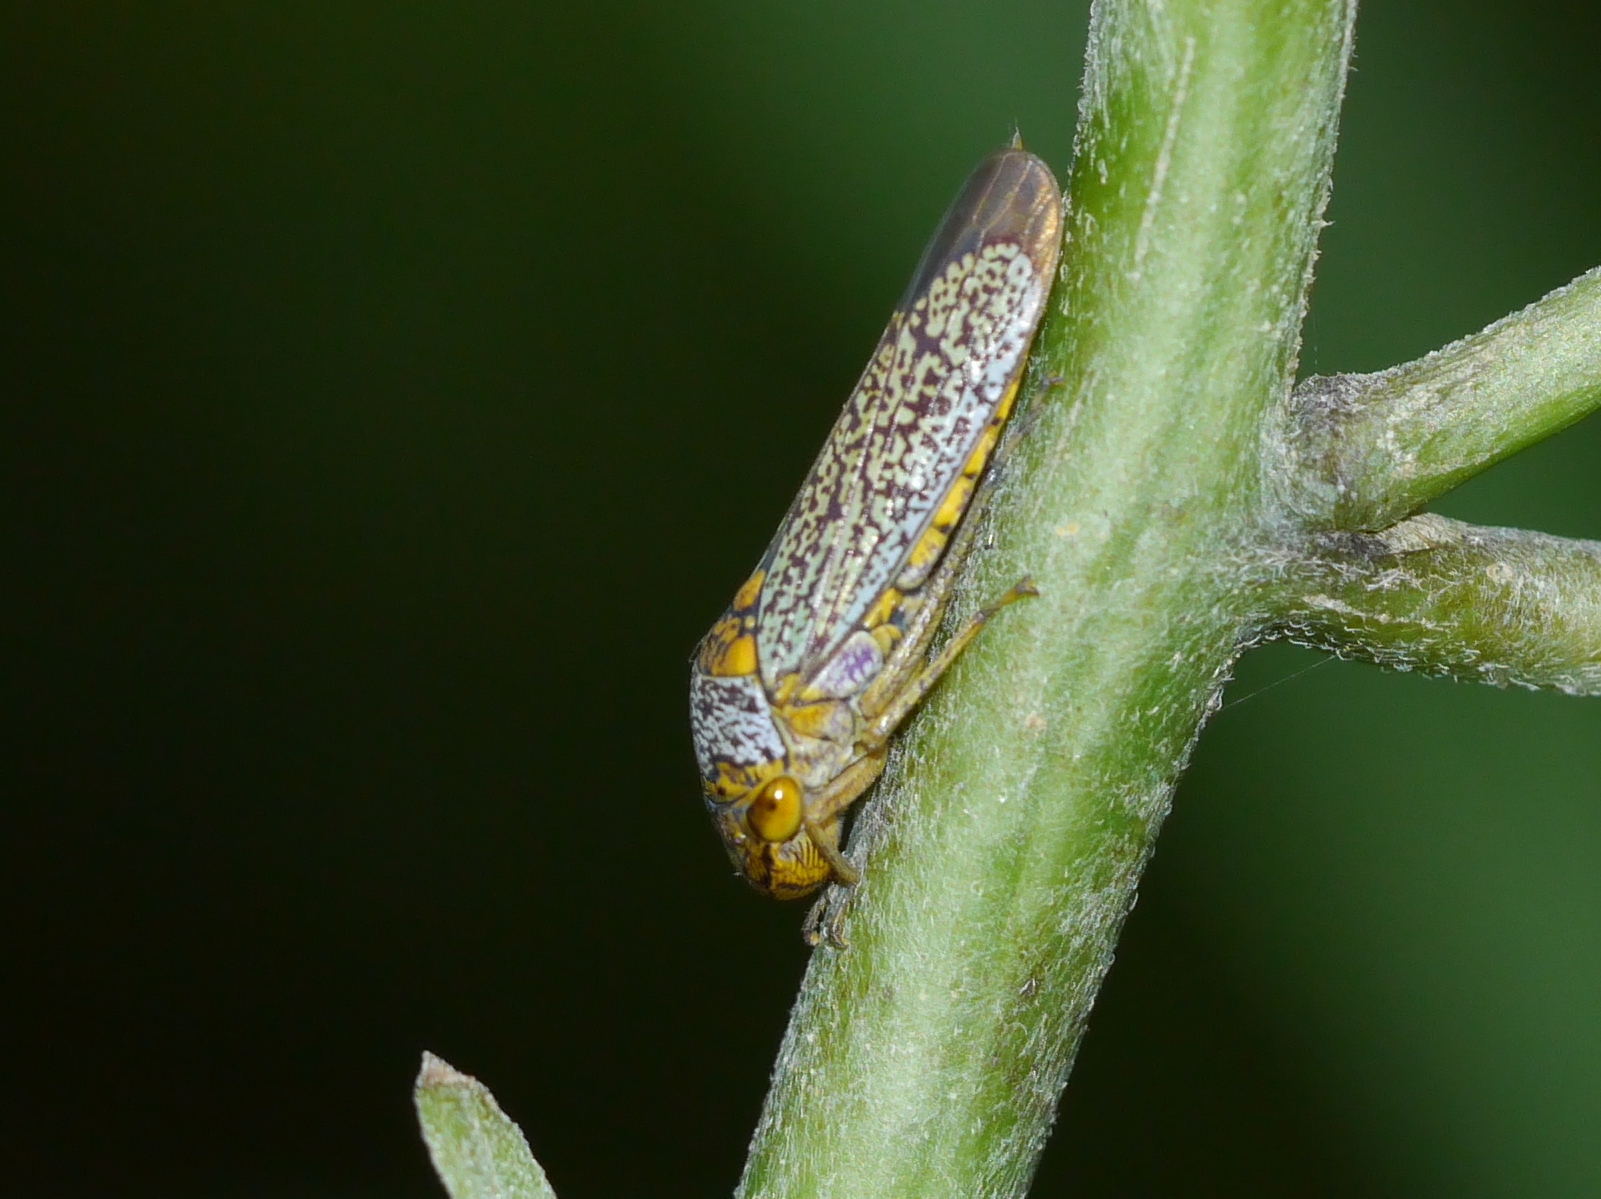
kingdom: Animalia
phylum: Arthropoda
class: Insecta
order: Hemiptera
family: Cicadellidae
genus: Oncometopia
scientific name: Oncometopia orbona
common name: Broad-headed sharpshooter
